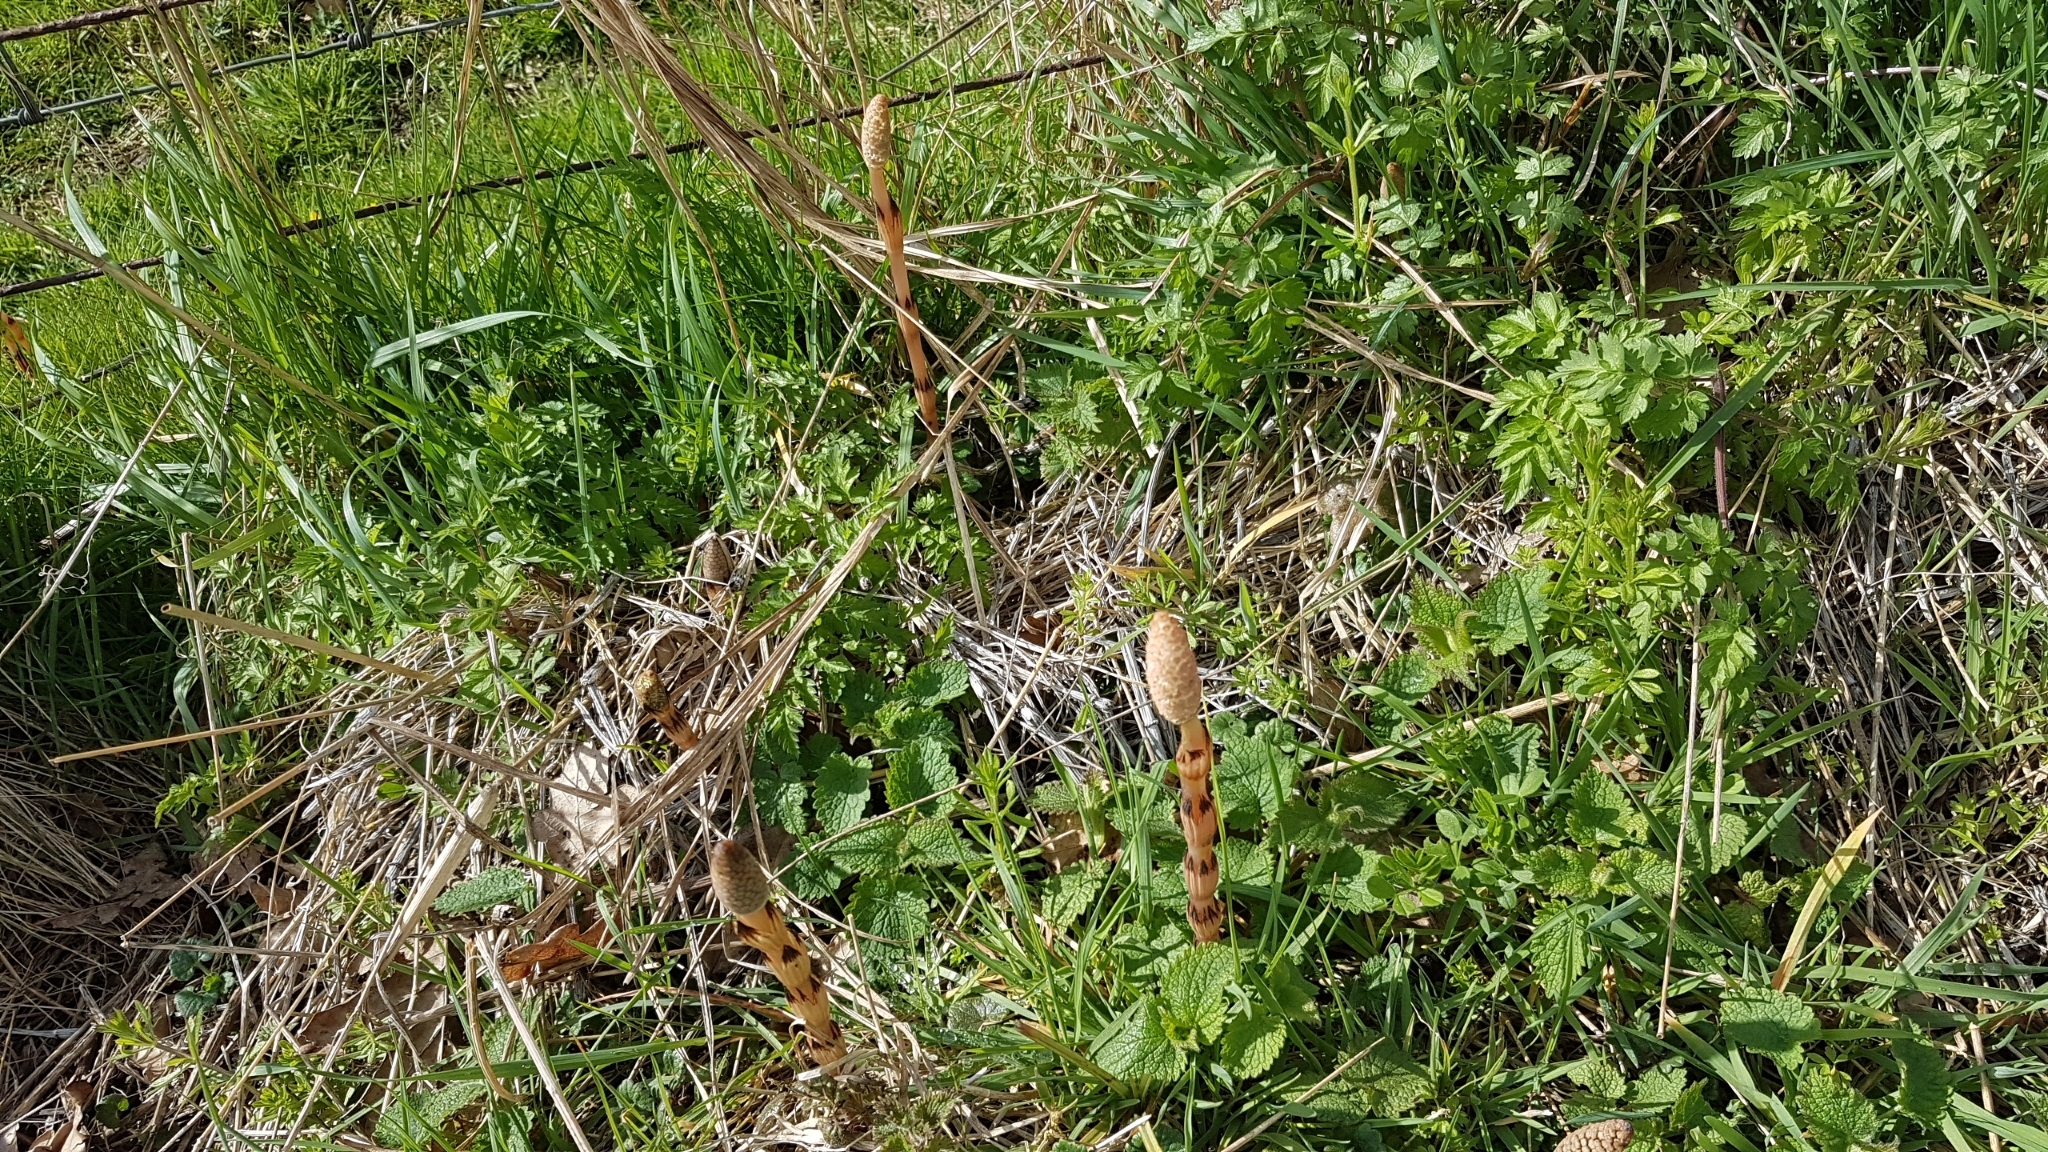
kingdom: Plantae
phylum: Tracheophyta
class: Polypodiopsida
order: Equisetales
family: Equisetaceae
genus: Equisetum
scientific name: Equisetum arvense
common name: Field horsetail
